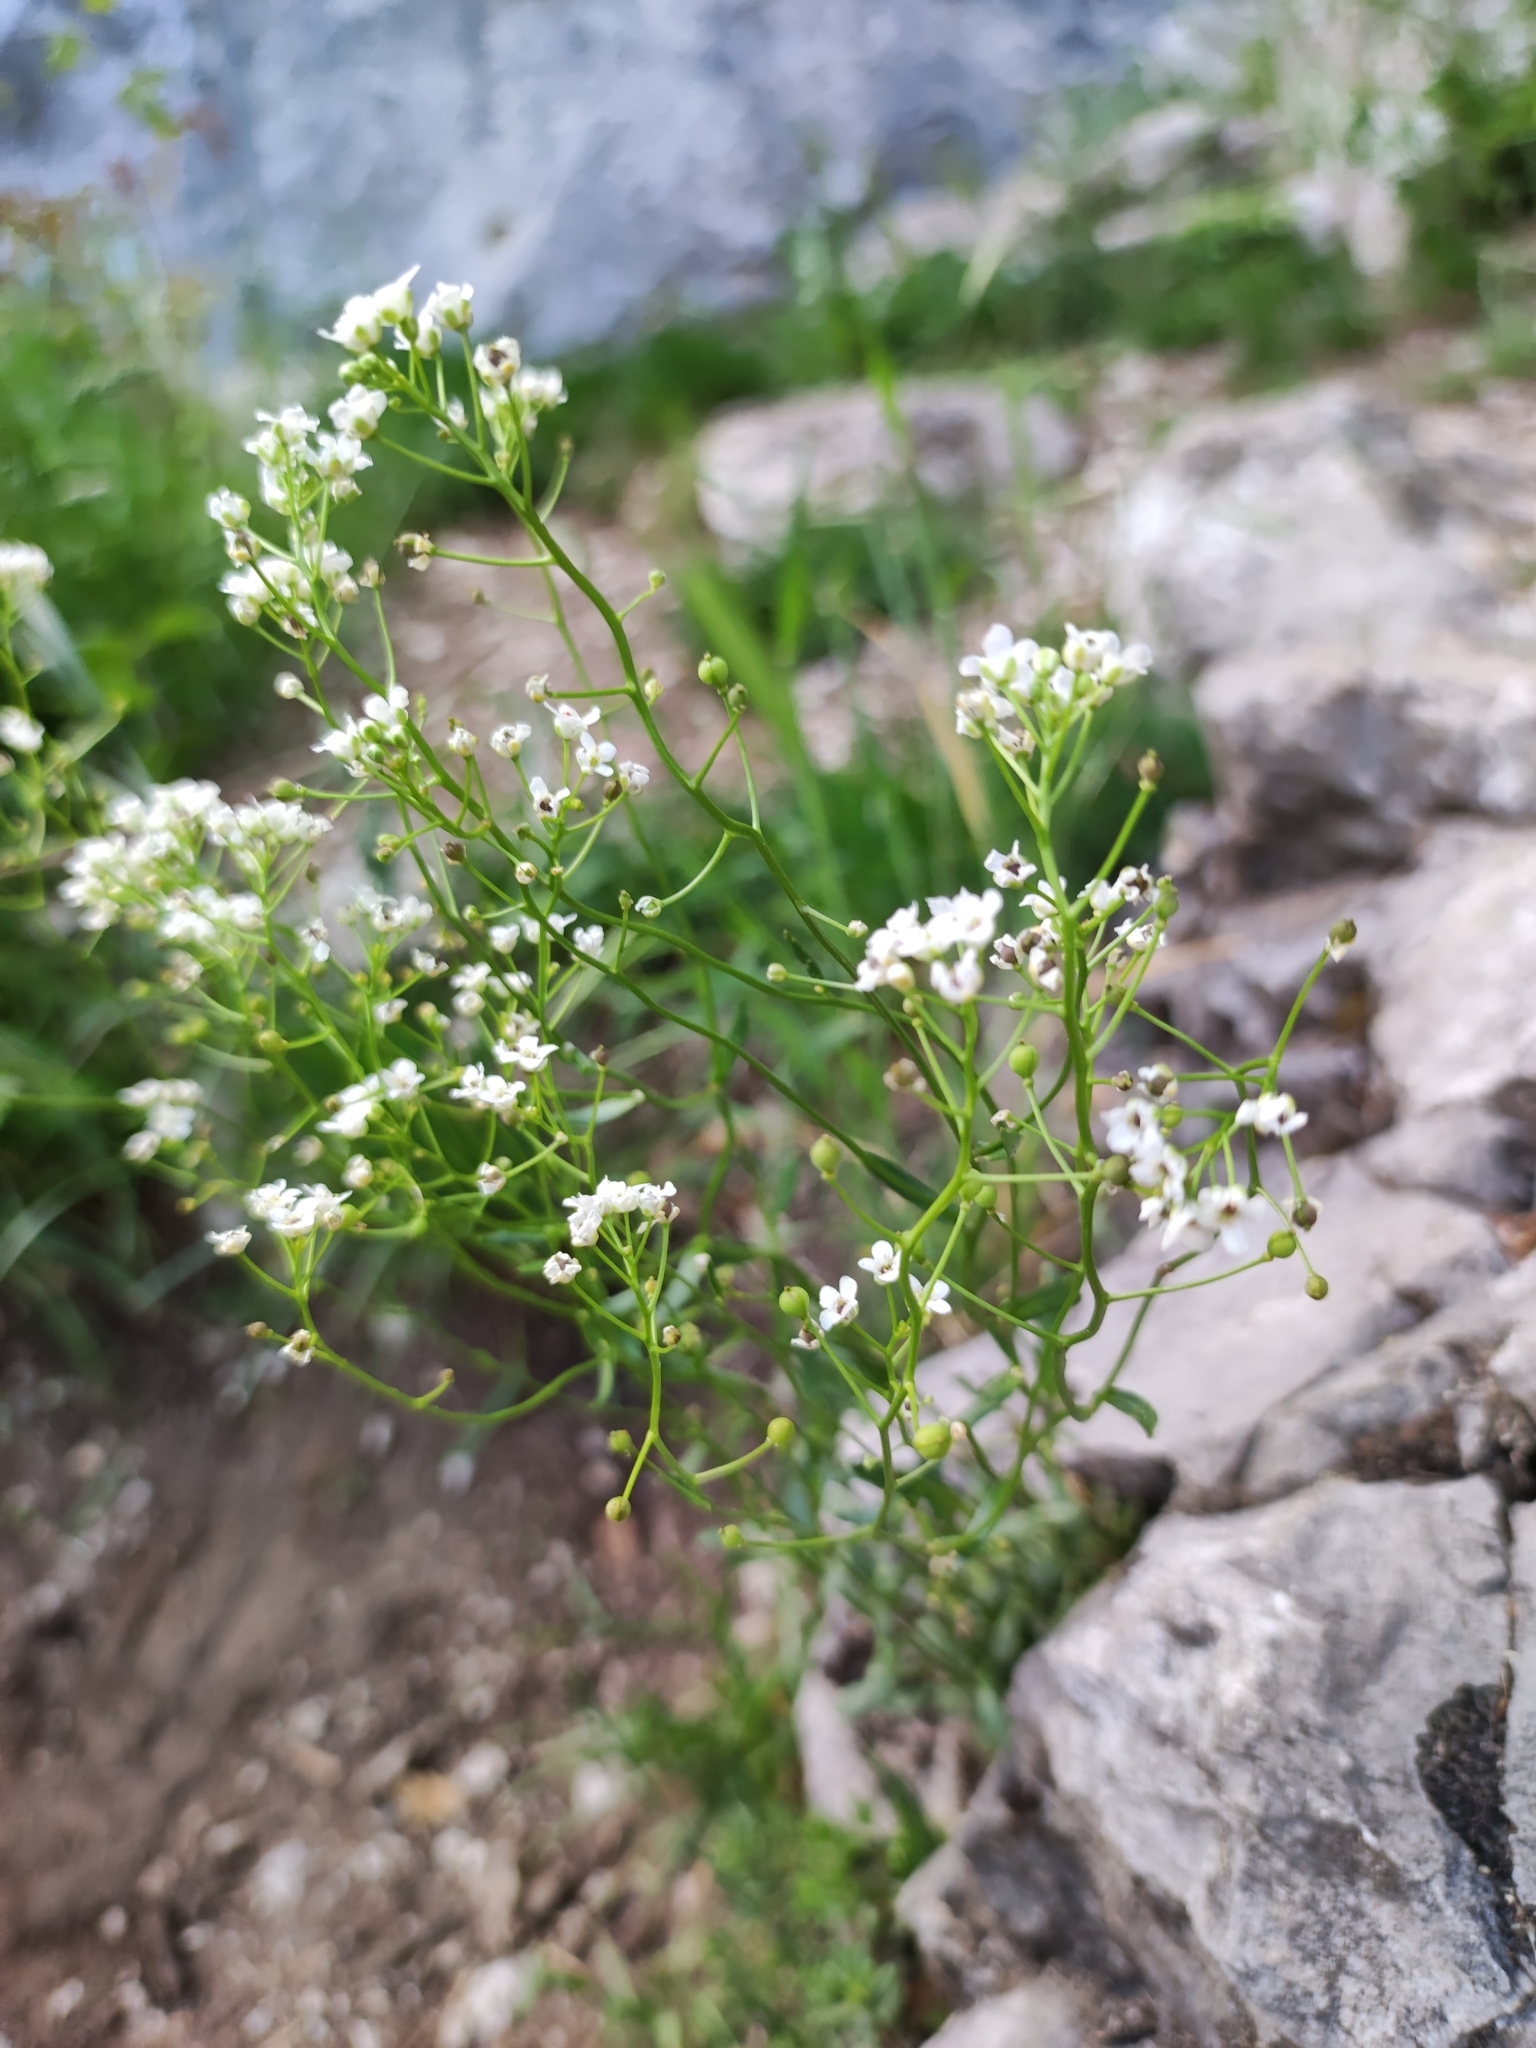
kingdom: Plantae
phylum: Tracheophyta
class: Magnoliopsida
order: Brassicales
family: Brassicaceae
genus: Kernera
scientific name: Kernera saxatilis
